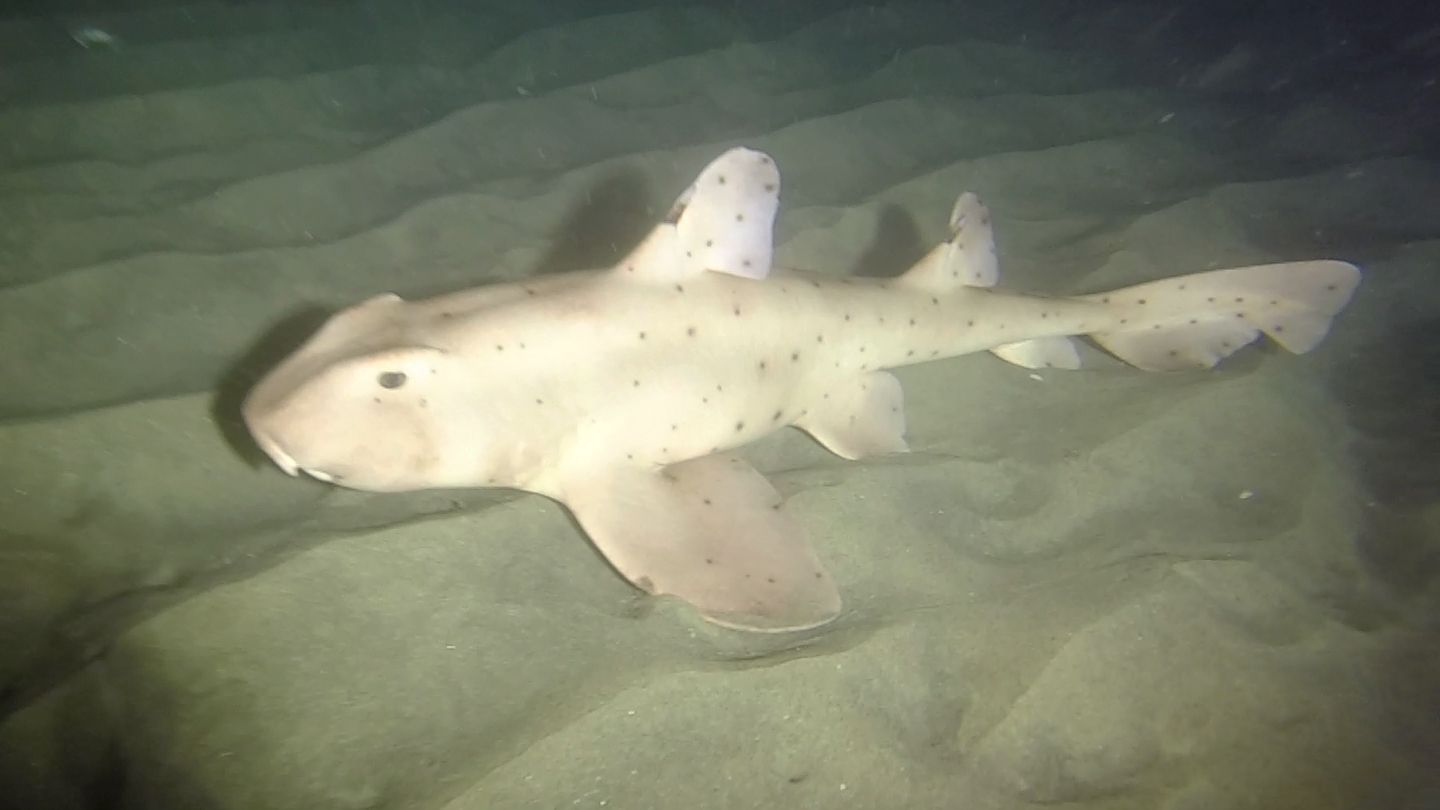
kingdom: Animalia
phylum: Chordata
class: Elasmobranchii
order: Heterodontiformes
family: Heterodontidae
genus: Heterodontus
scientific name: Heterodontus francisci
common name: Horn shark
